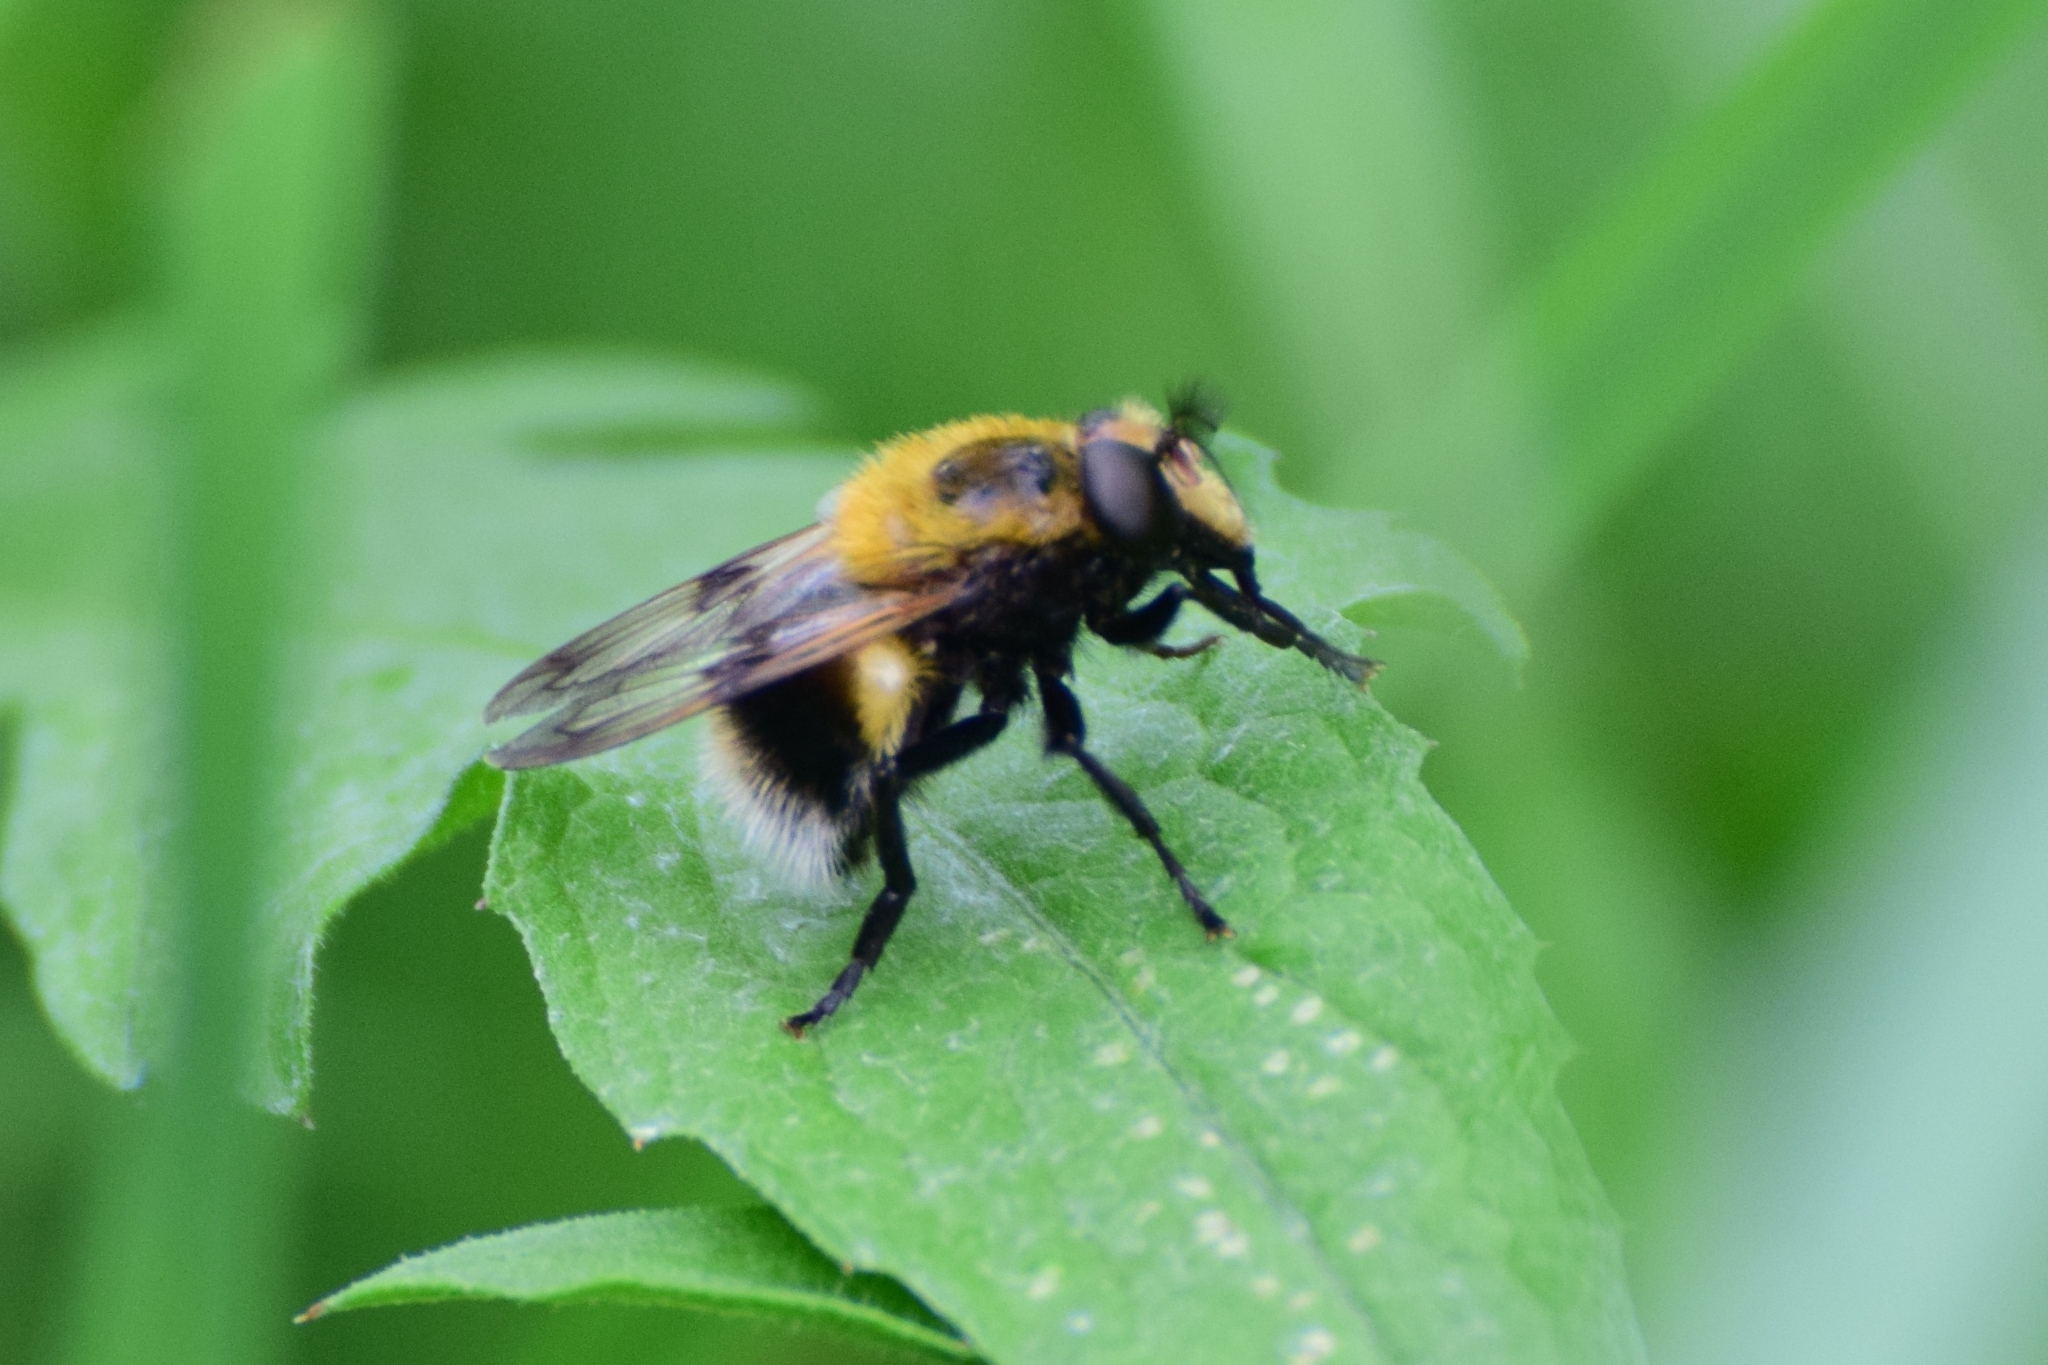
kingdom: Animalia
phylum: Arthropoda
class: Insecta
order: Diptera
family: Syrphidae
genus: Volucella
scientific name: Volucella bombylans
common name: Bumble bee hover fly
